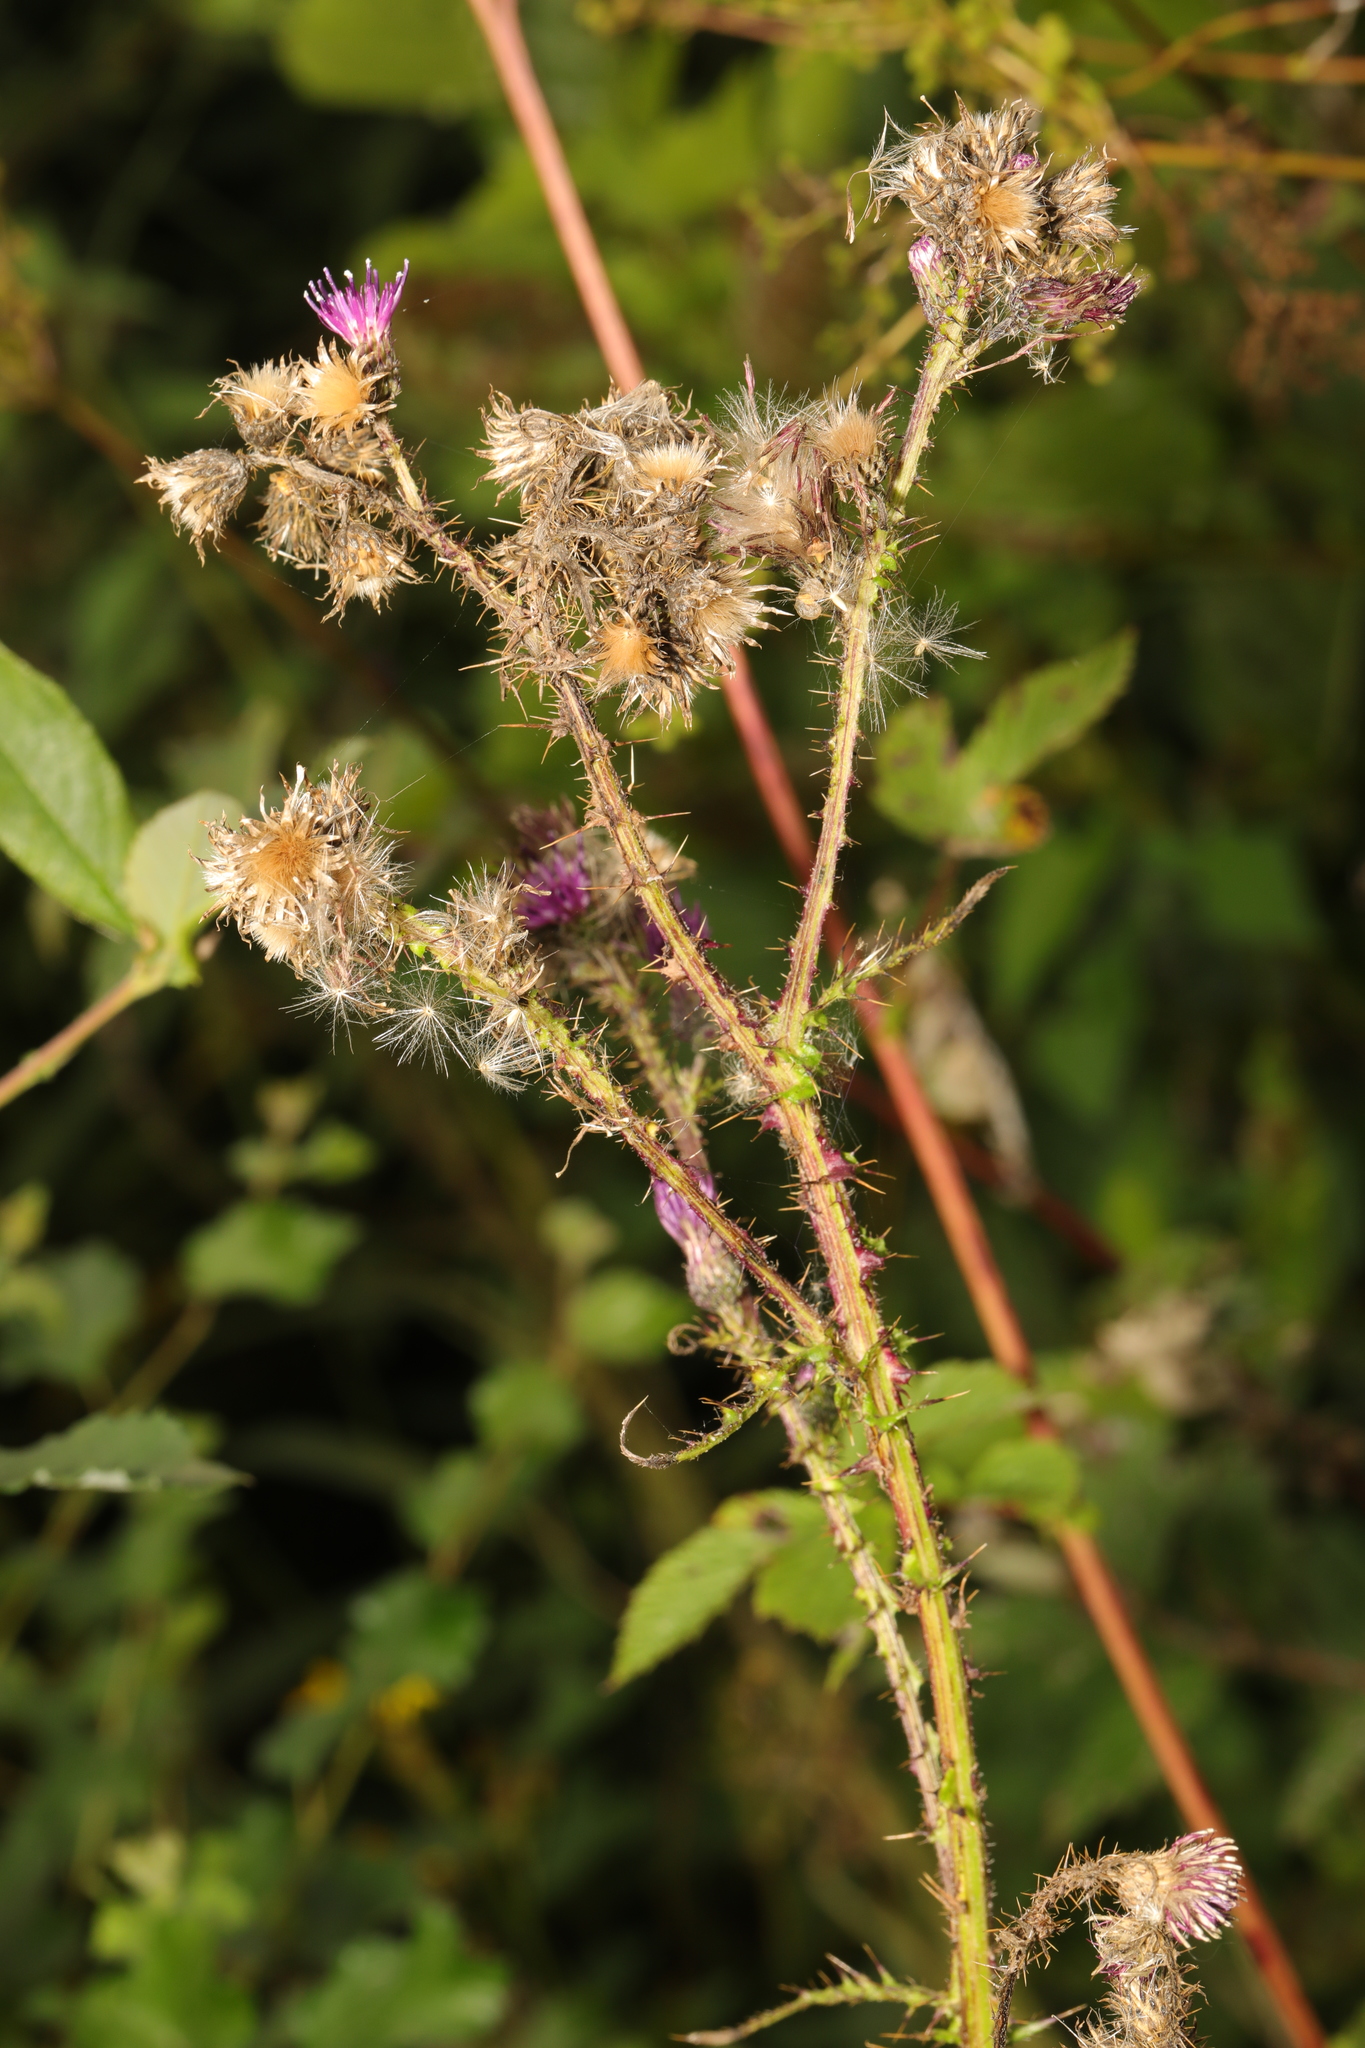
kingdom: Plantae
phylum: Tracheophyta
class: Magnoliopsida
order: Asterales
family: Asteraceae
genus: Cirsium
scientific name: Cirsium palustre
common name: Marsh thistle
